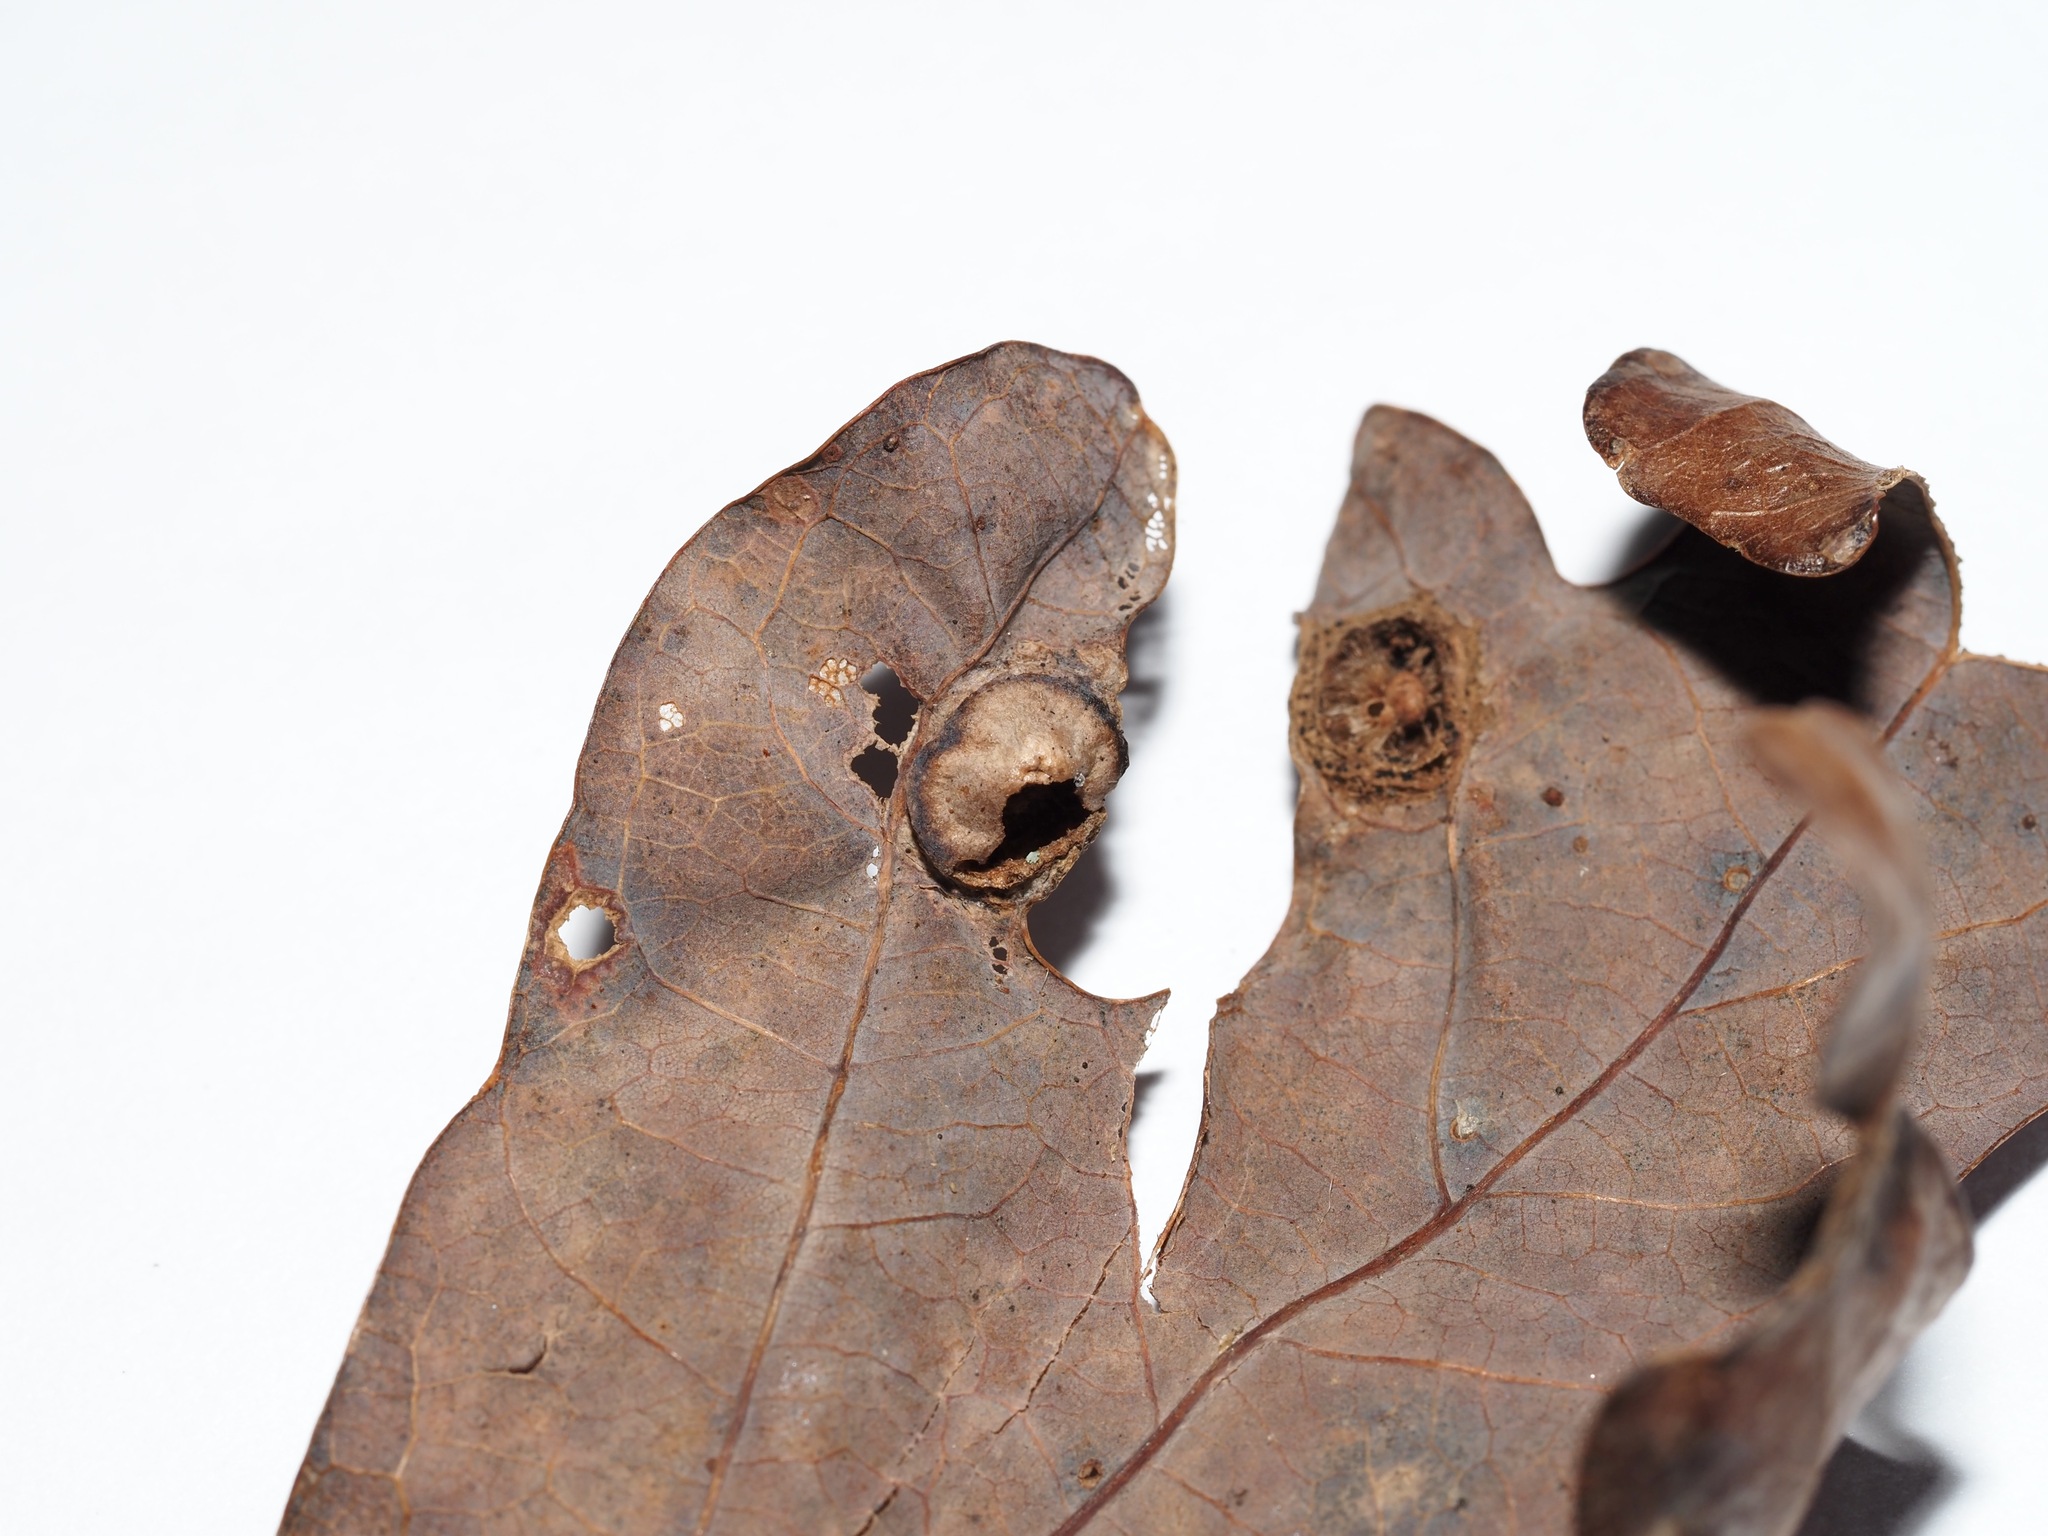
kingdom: Animalia
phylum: Arthropoda
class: Insecta
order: Hymenoptera
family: Cynipidae
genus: Callirhytis
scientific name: Callirhytis
